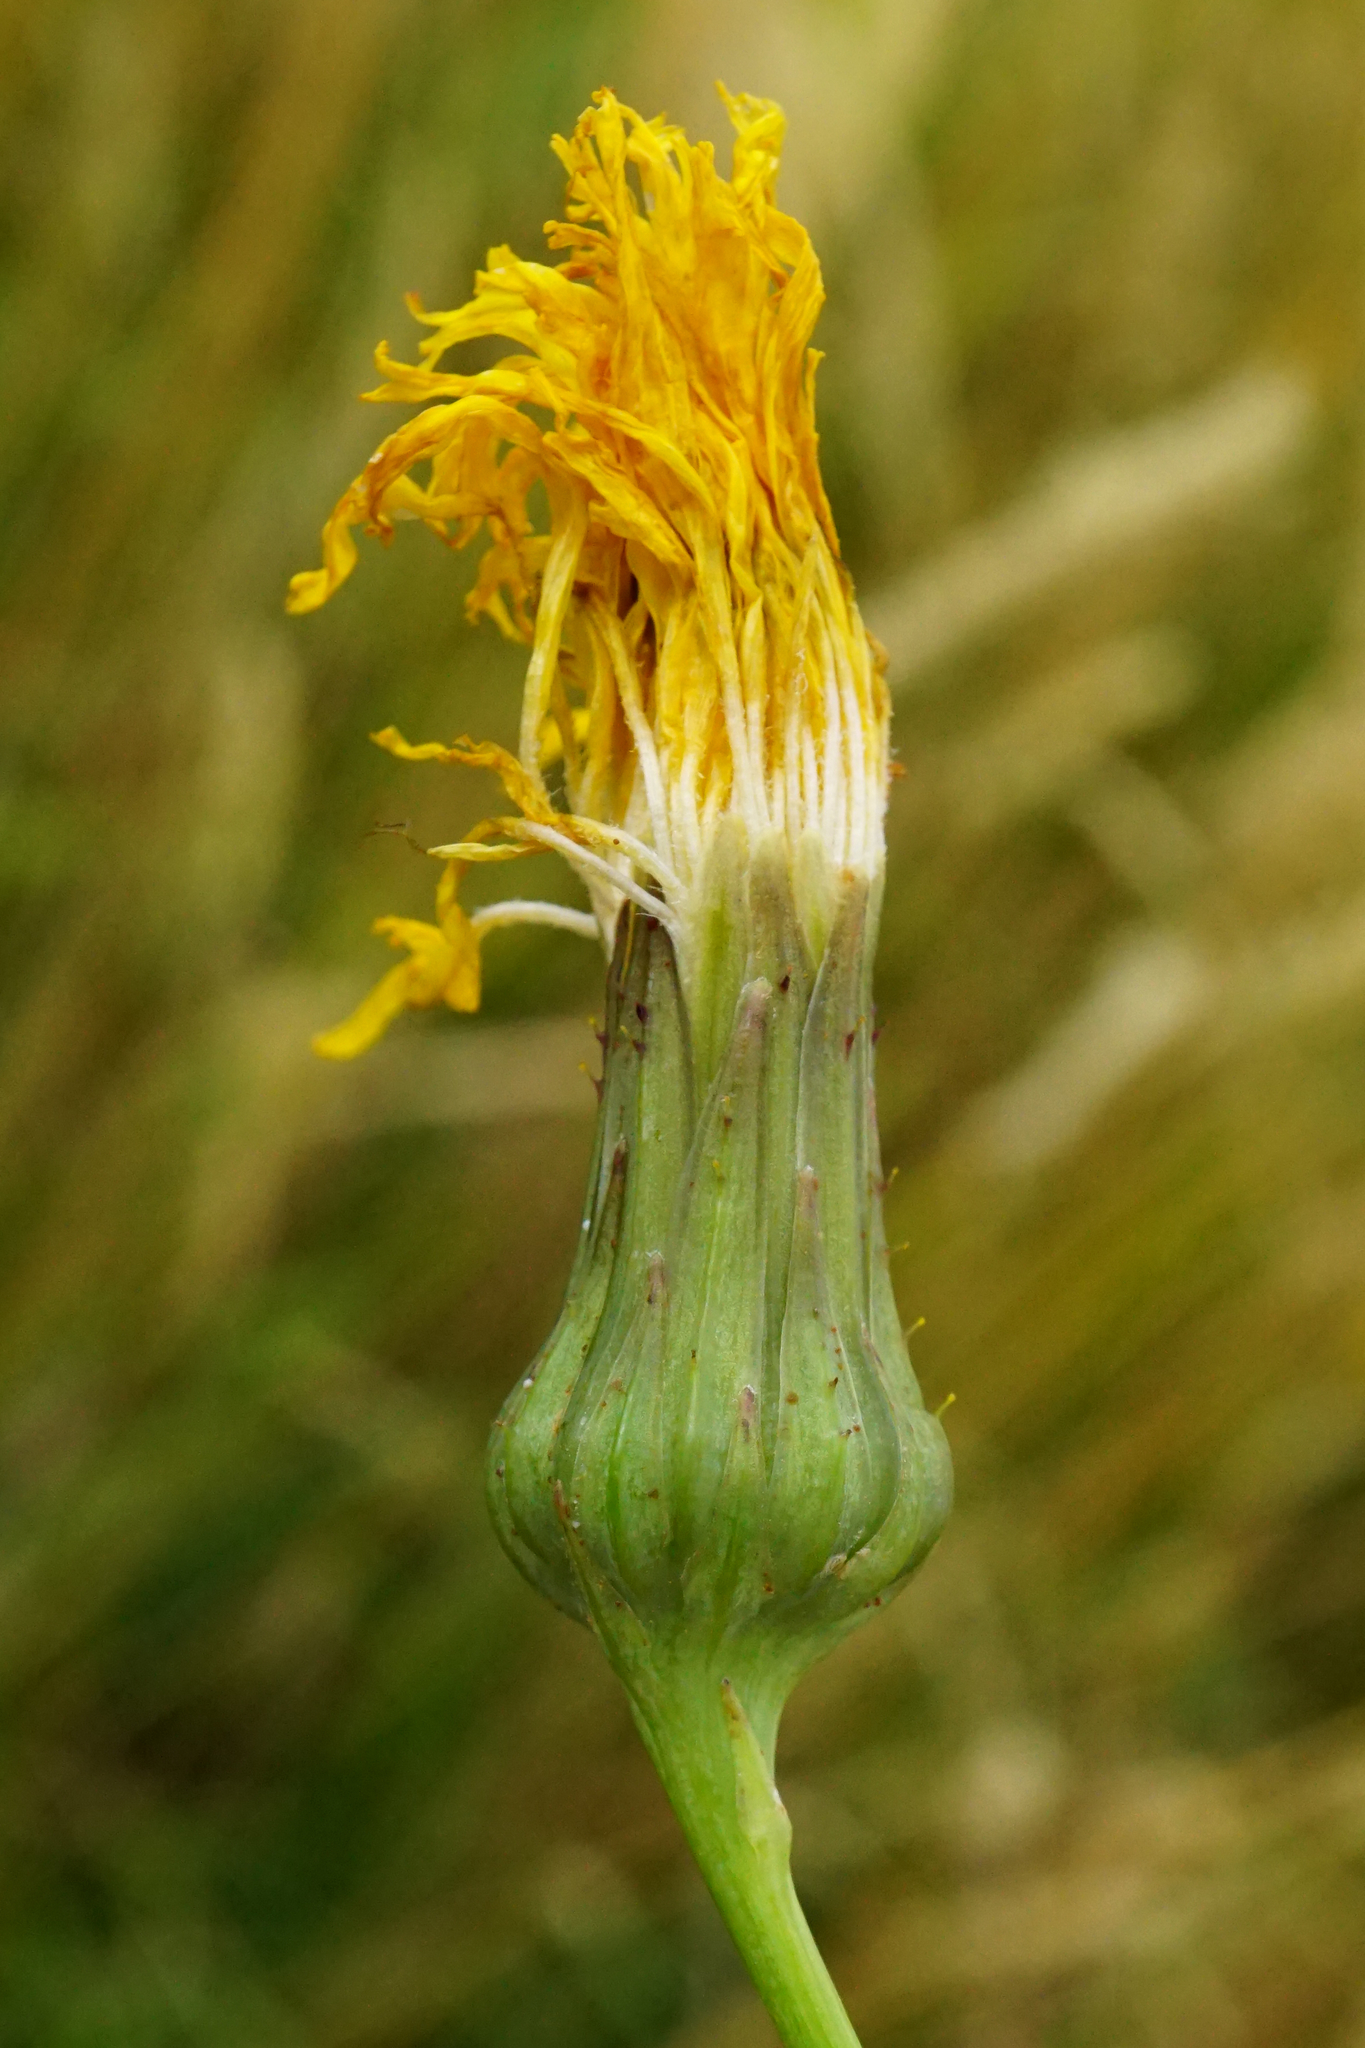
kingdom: Plantae
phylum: Tracheophyta
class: Magnoliopsida
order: Asterales
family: Asteraceae
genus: Sonchus
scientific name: Sonchus arvensis
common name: Perennial sow-thistle
